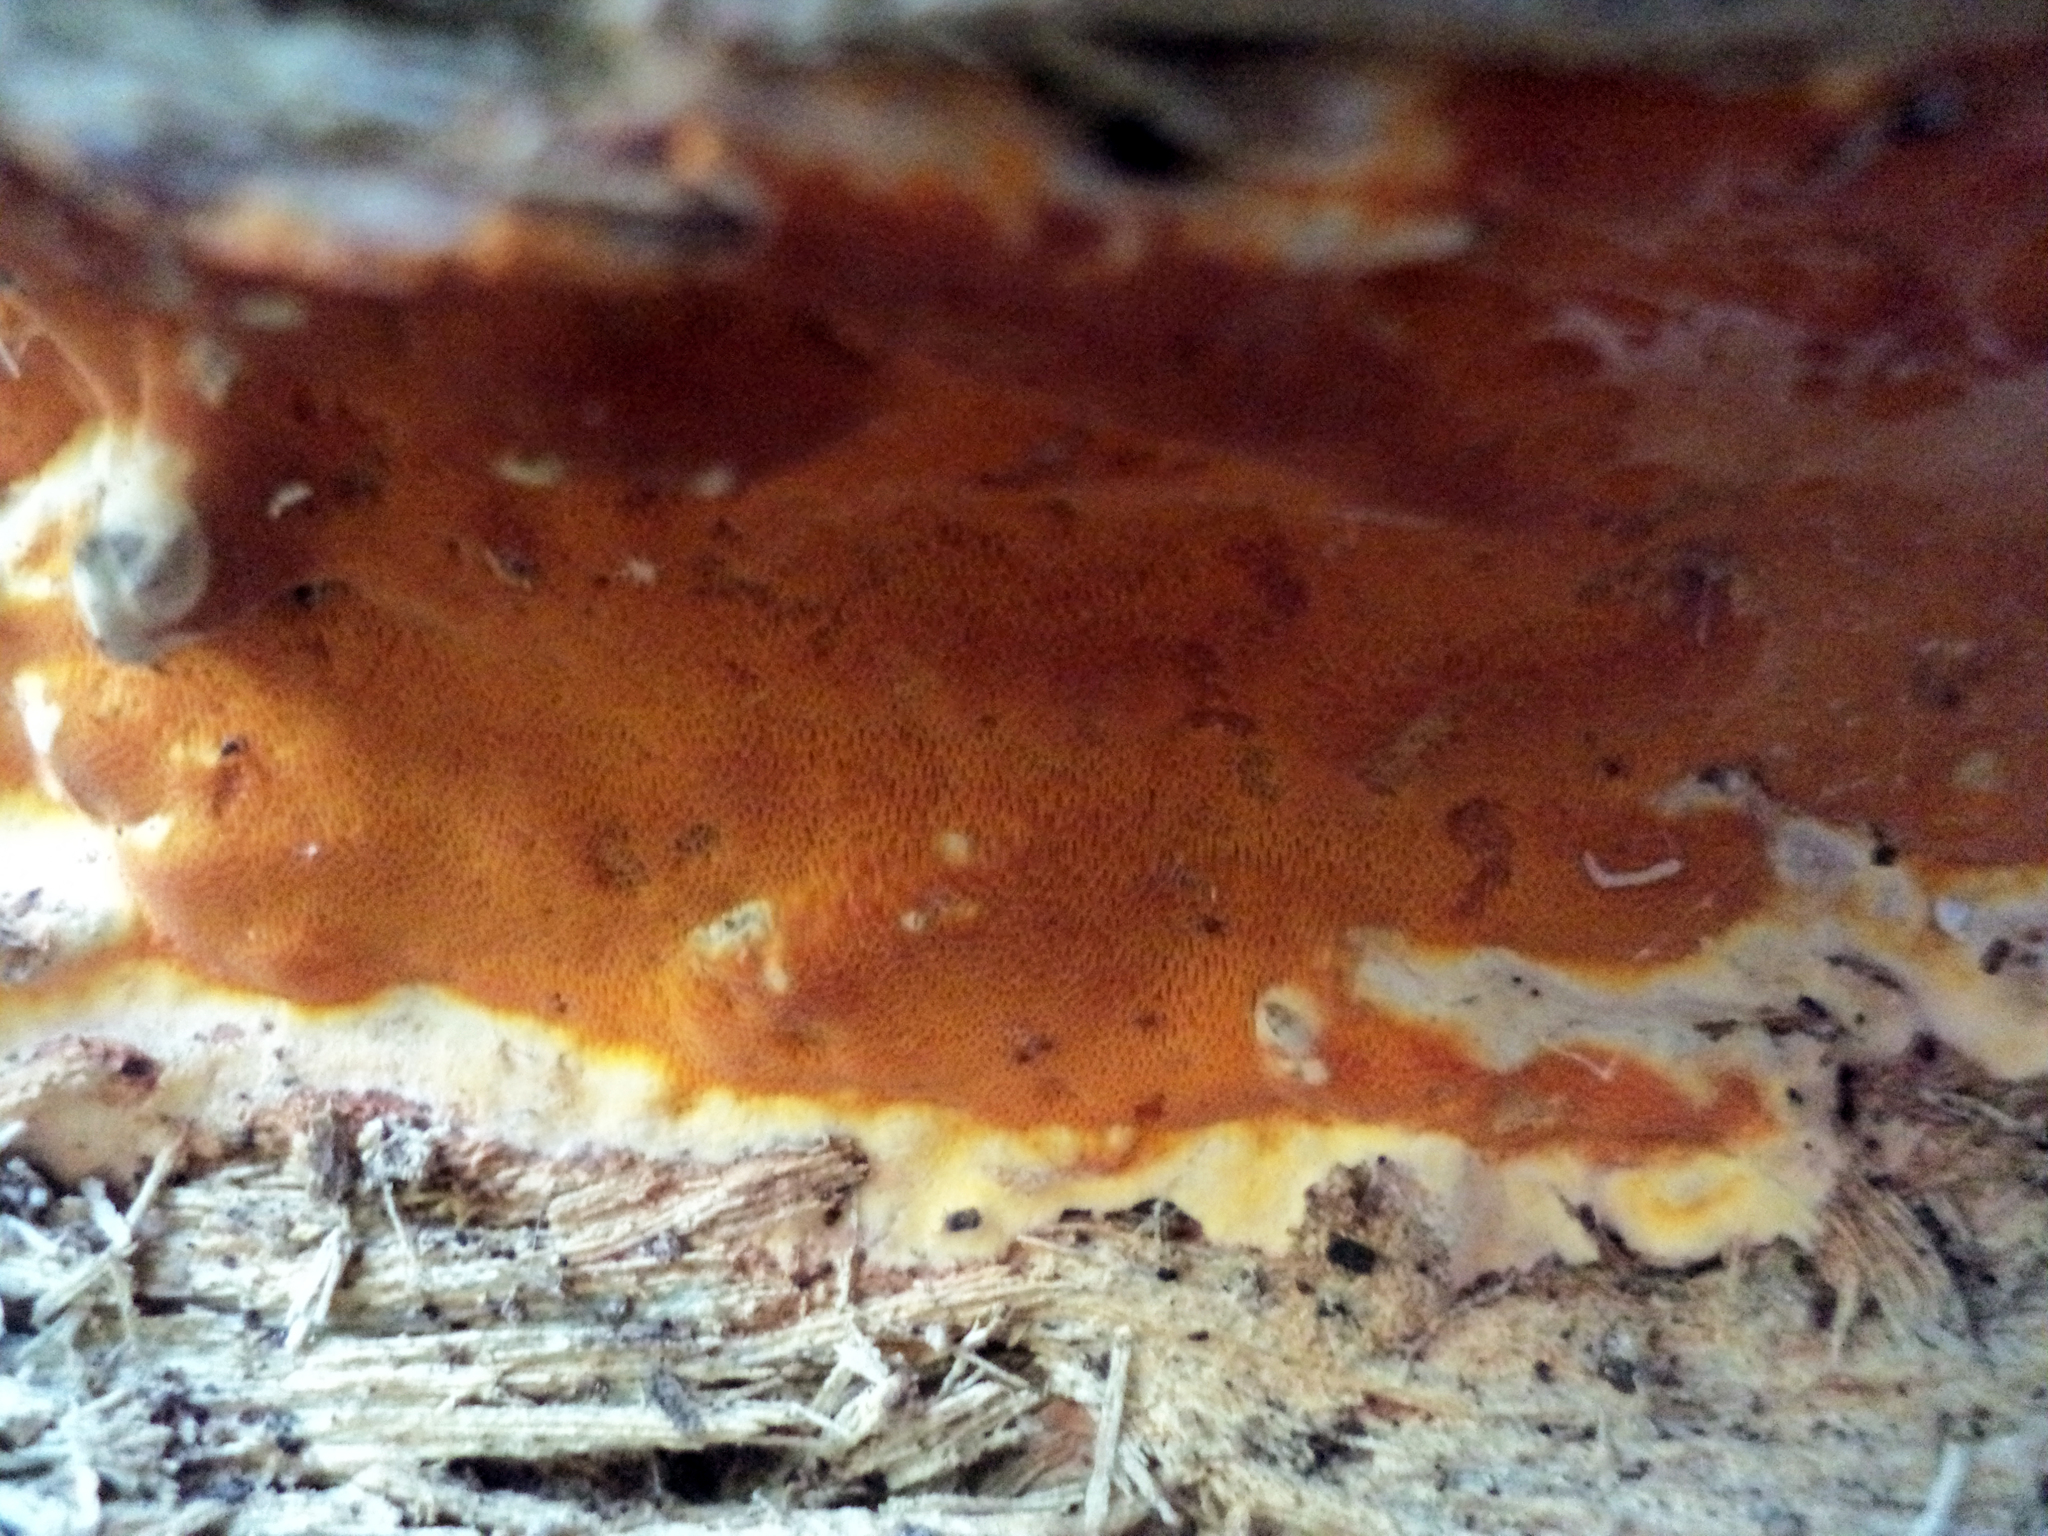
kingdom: Fungi
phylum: Basidiomycota
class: Agaricomycetes
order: Polyporales
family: Irpicaceae
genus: Ceriporia
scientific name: Ceriporia spissa
